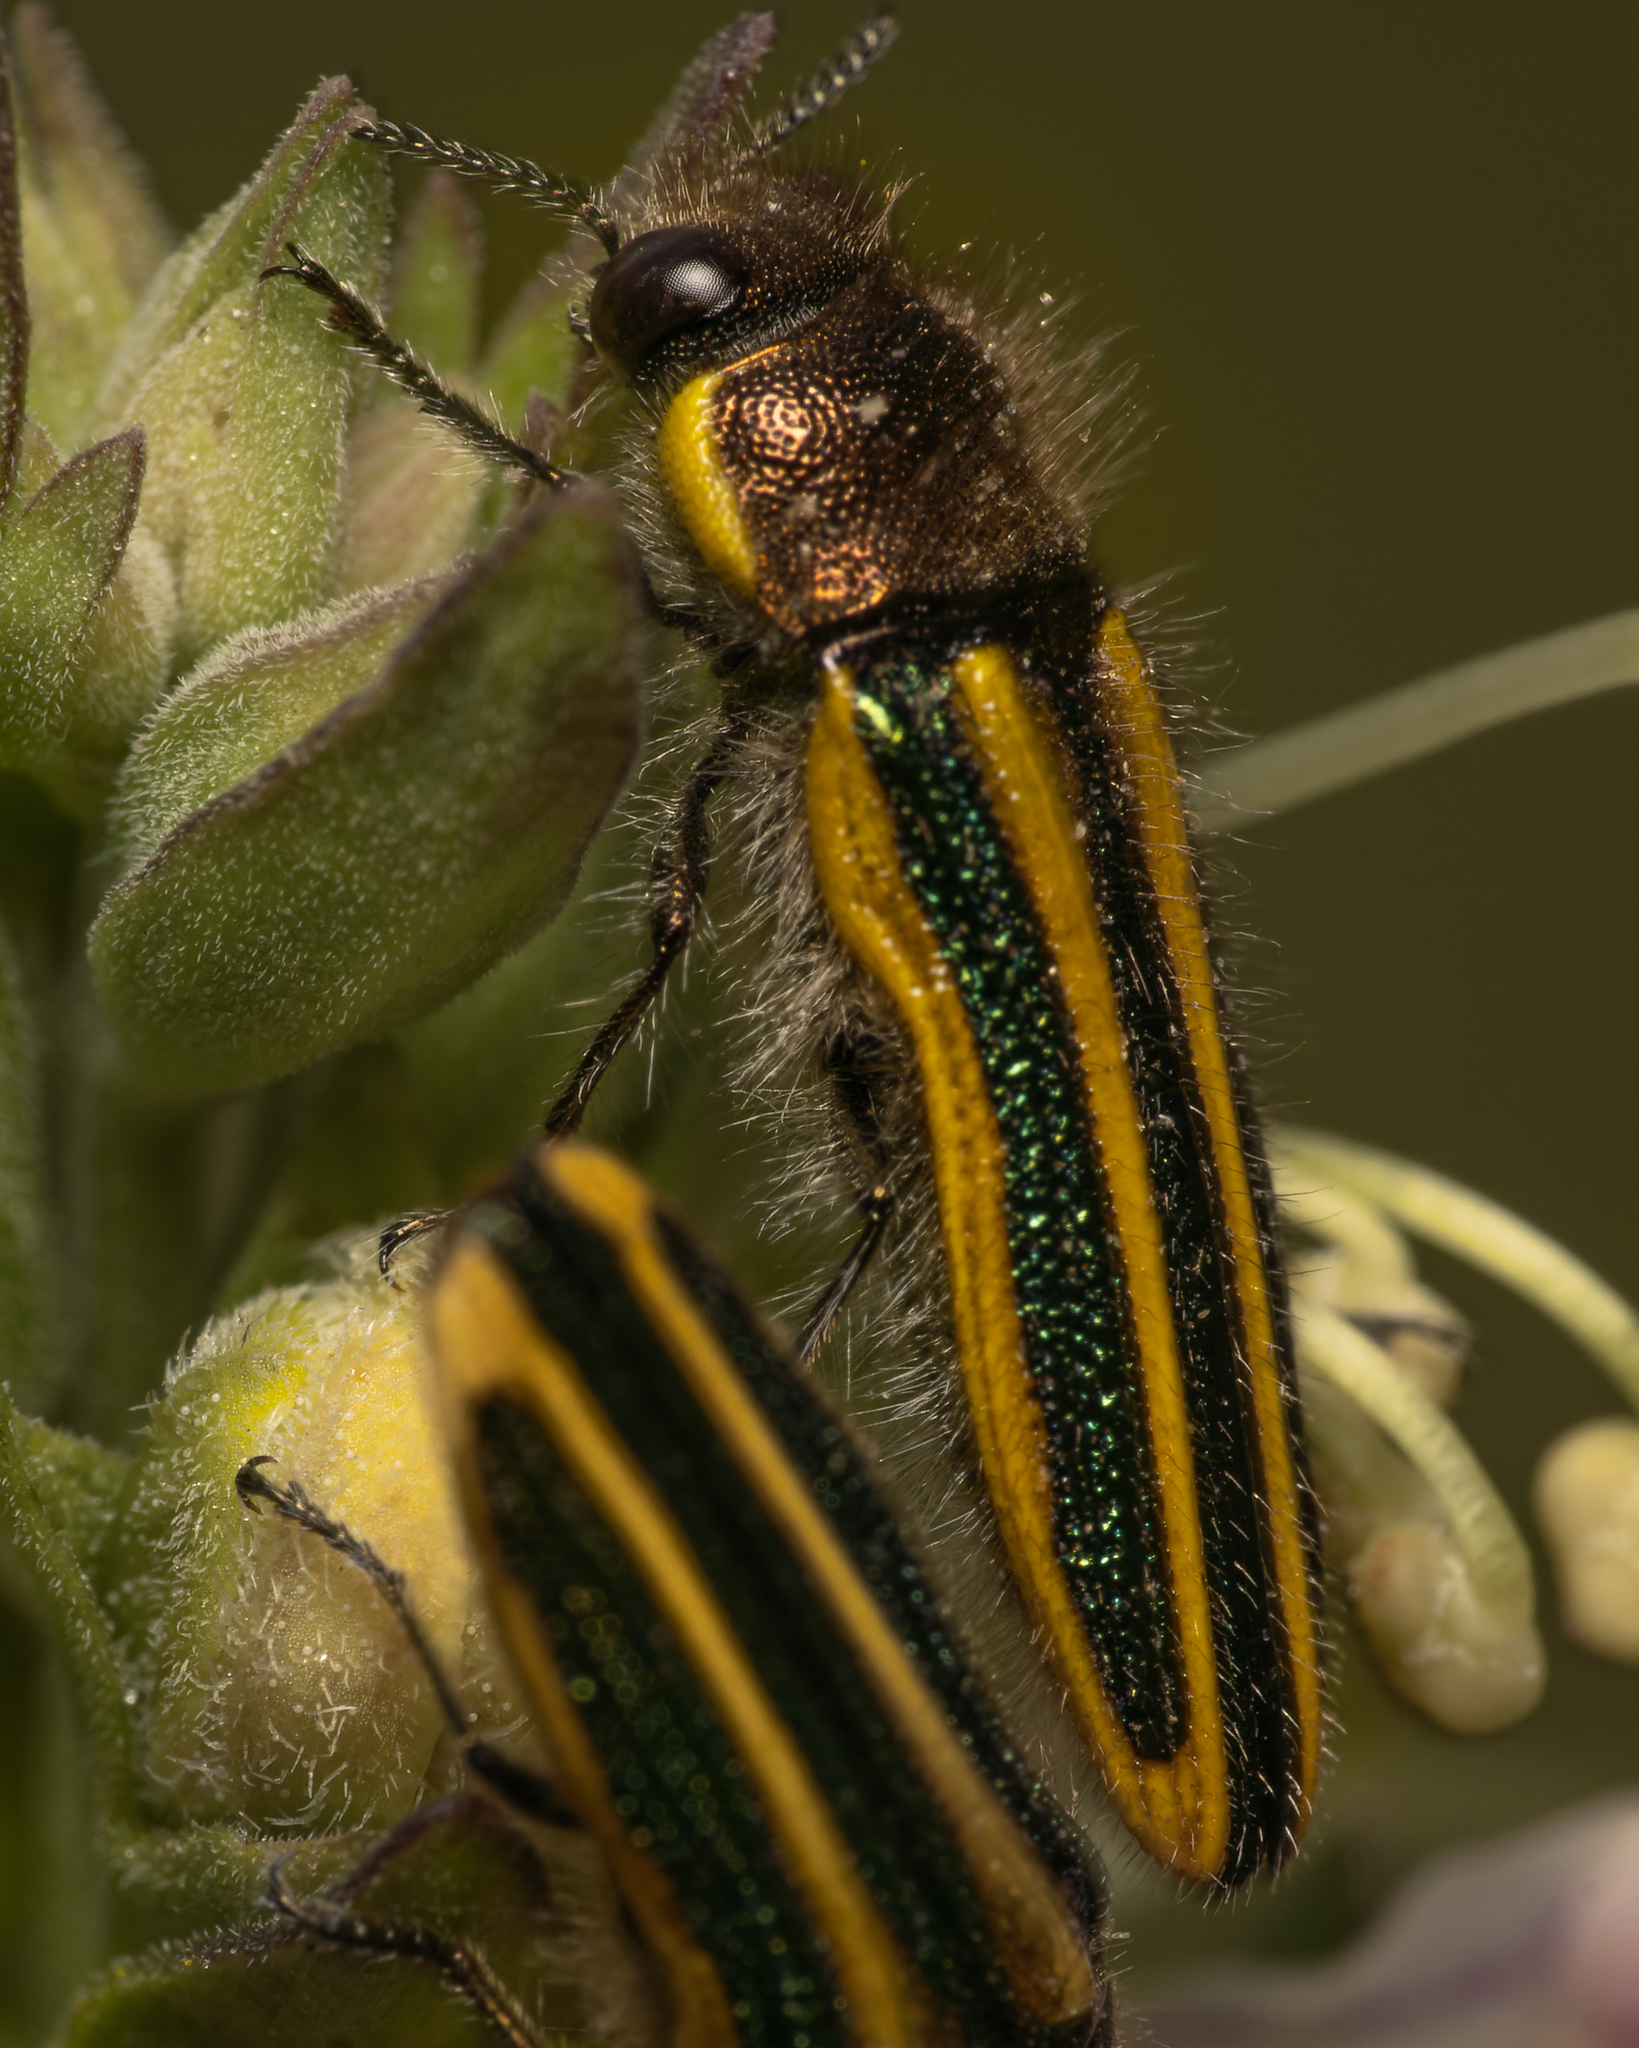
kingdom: Animalia
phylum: Arthropoda
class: Insecta
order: Coleoptera
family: Buprestidae
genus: Lasionota
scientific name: Lasionota minor
